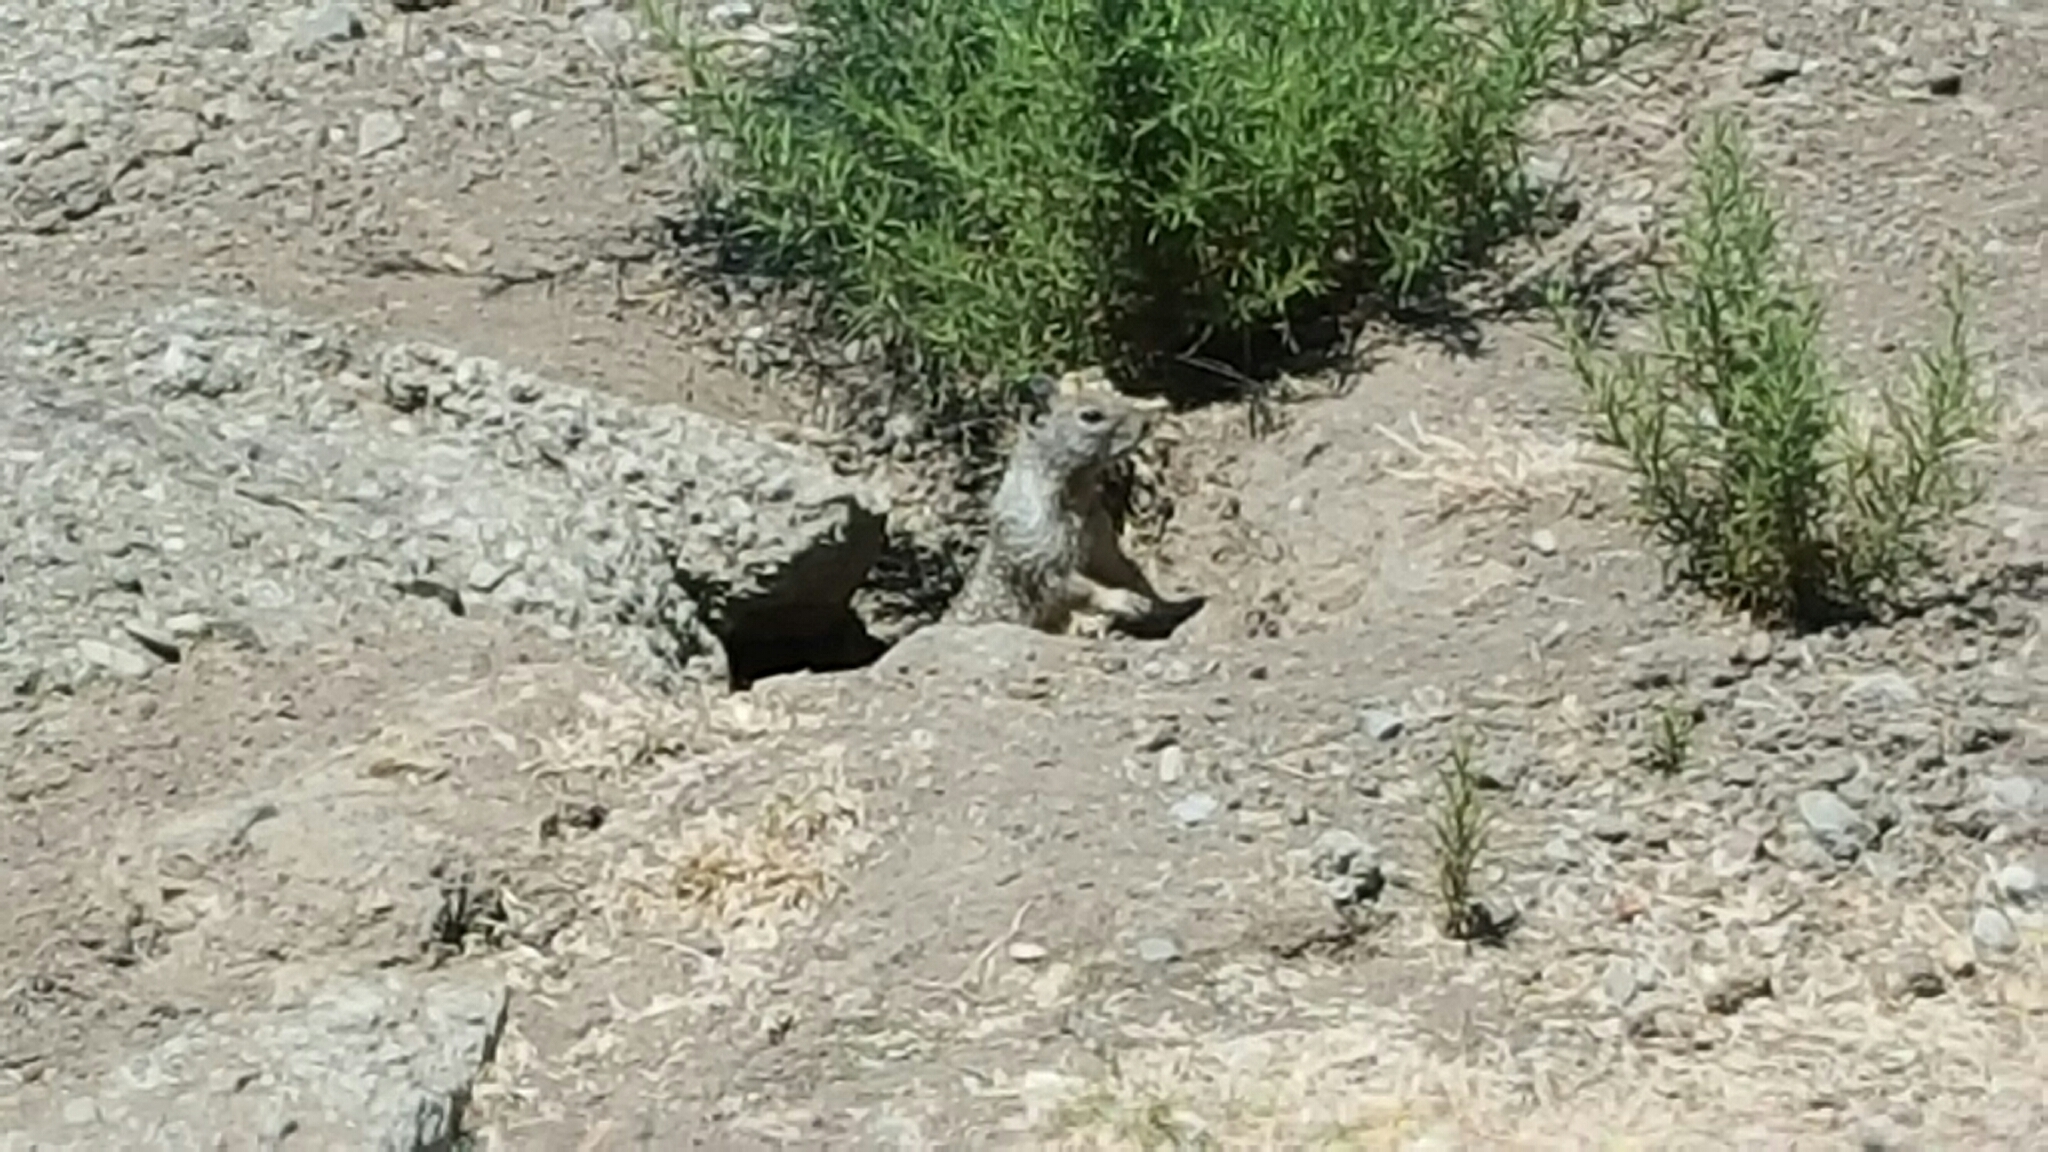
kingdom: Animalia
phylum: Chordata
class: Mammalia
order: Rodentia
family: Sciuridae
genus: Otospermophilus
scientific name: Otospermophilus beecheyi
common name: California ground squirrel
